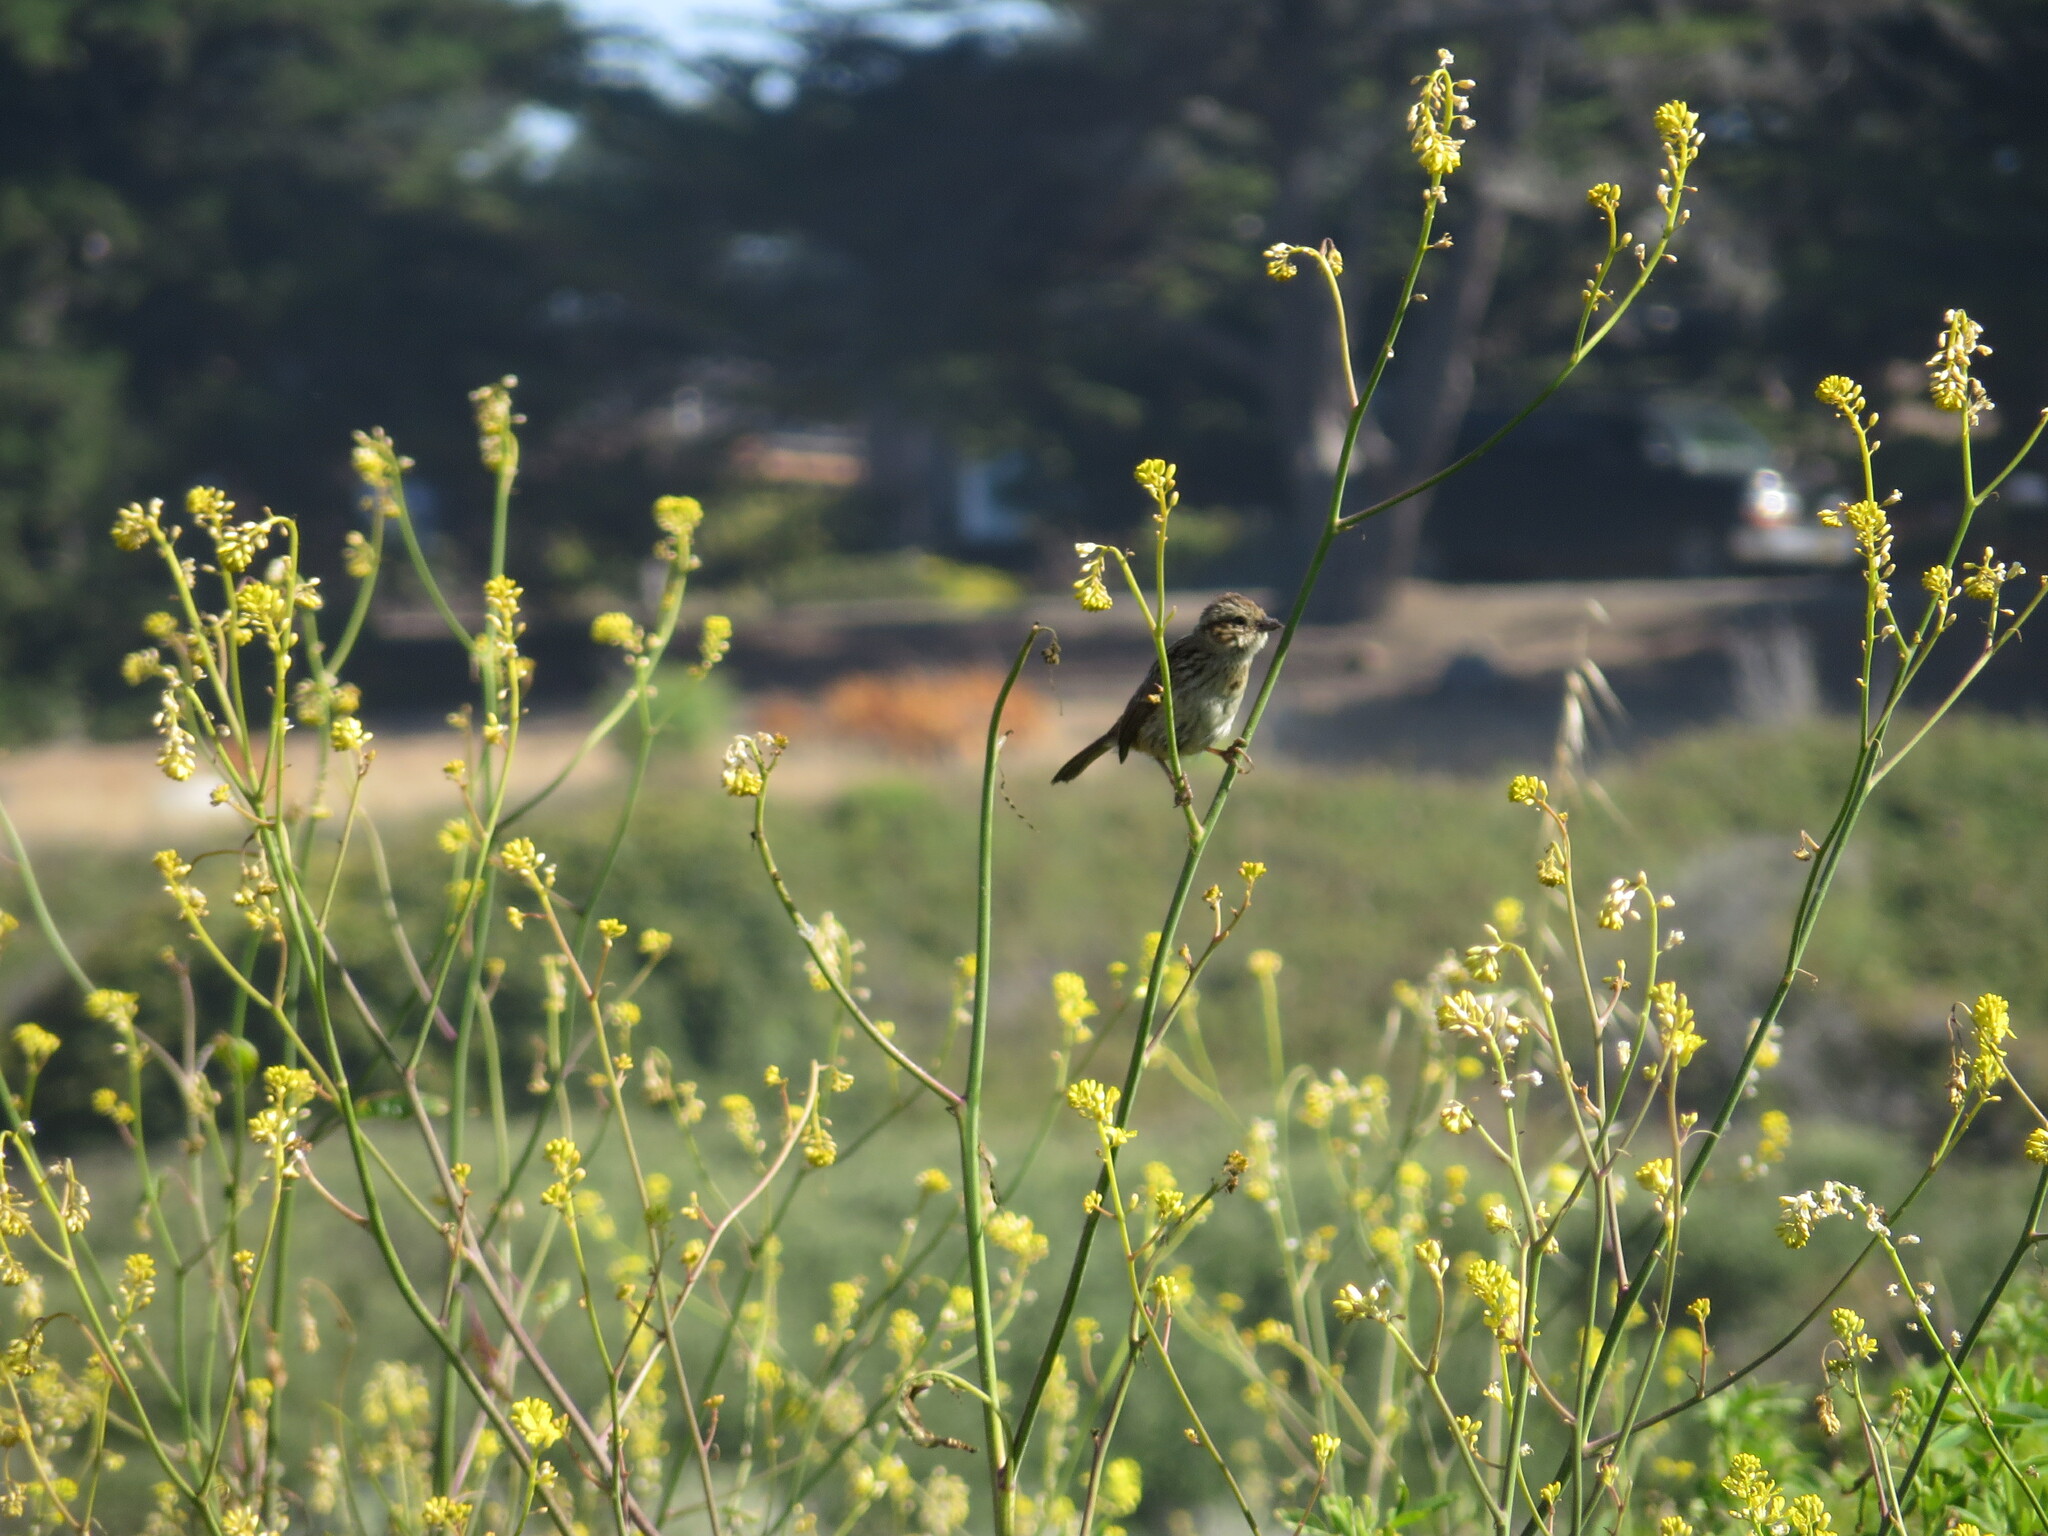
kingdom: Animalia
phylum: Chordata
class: Aves
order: Passeriformes
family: Passerellidae
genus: Melospiza
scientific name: Melospiza melodia
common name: Song sparrow
